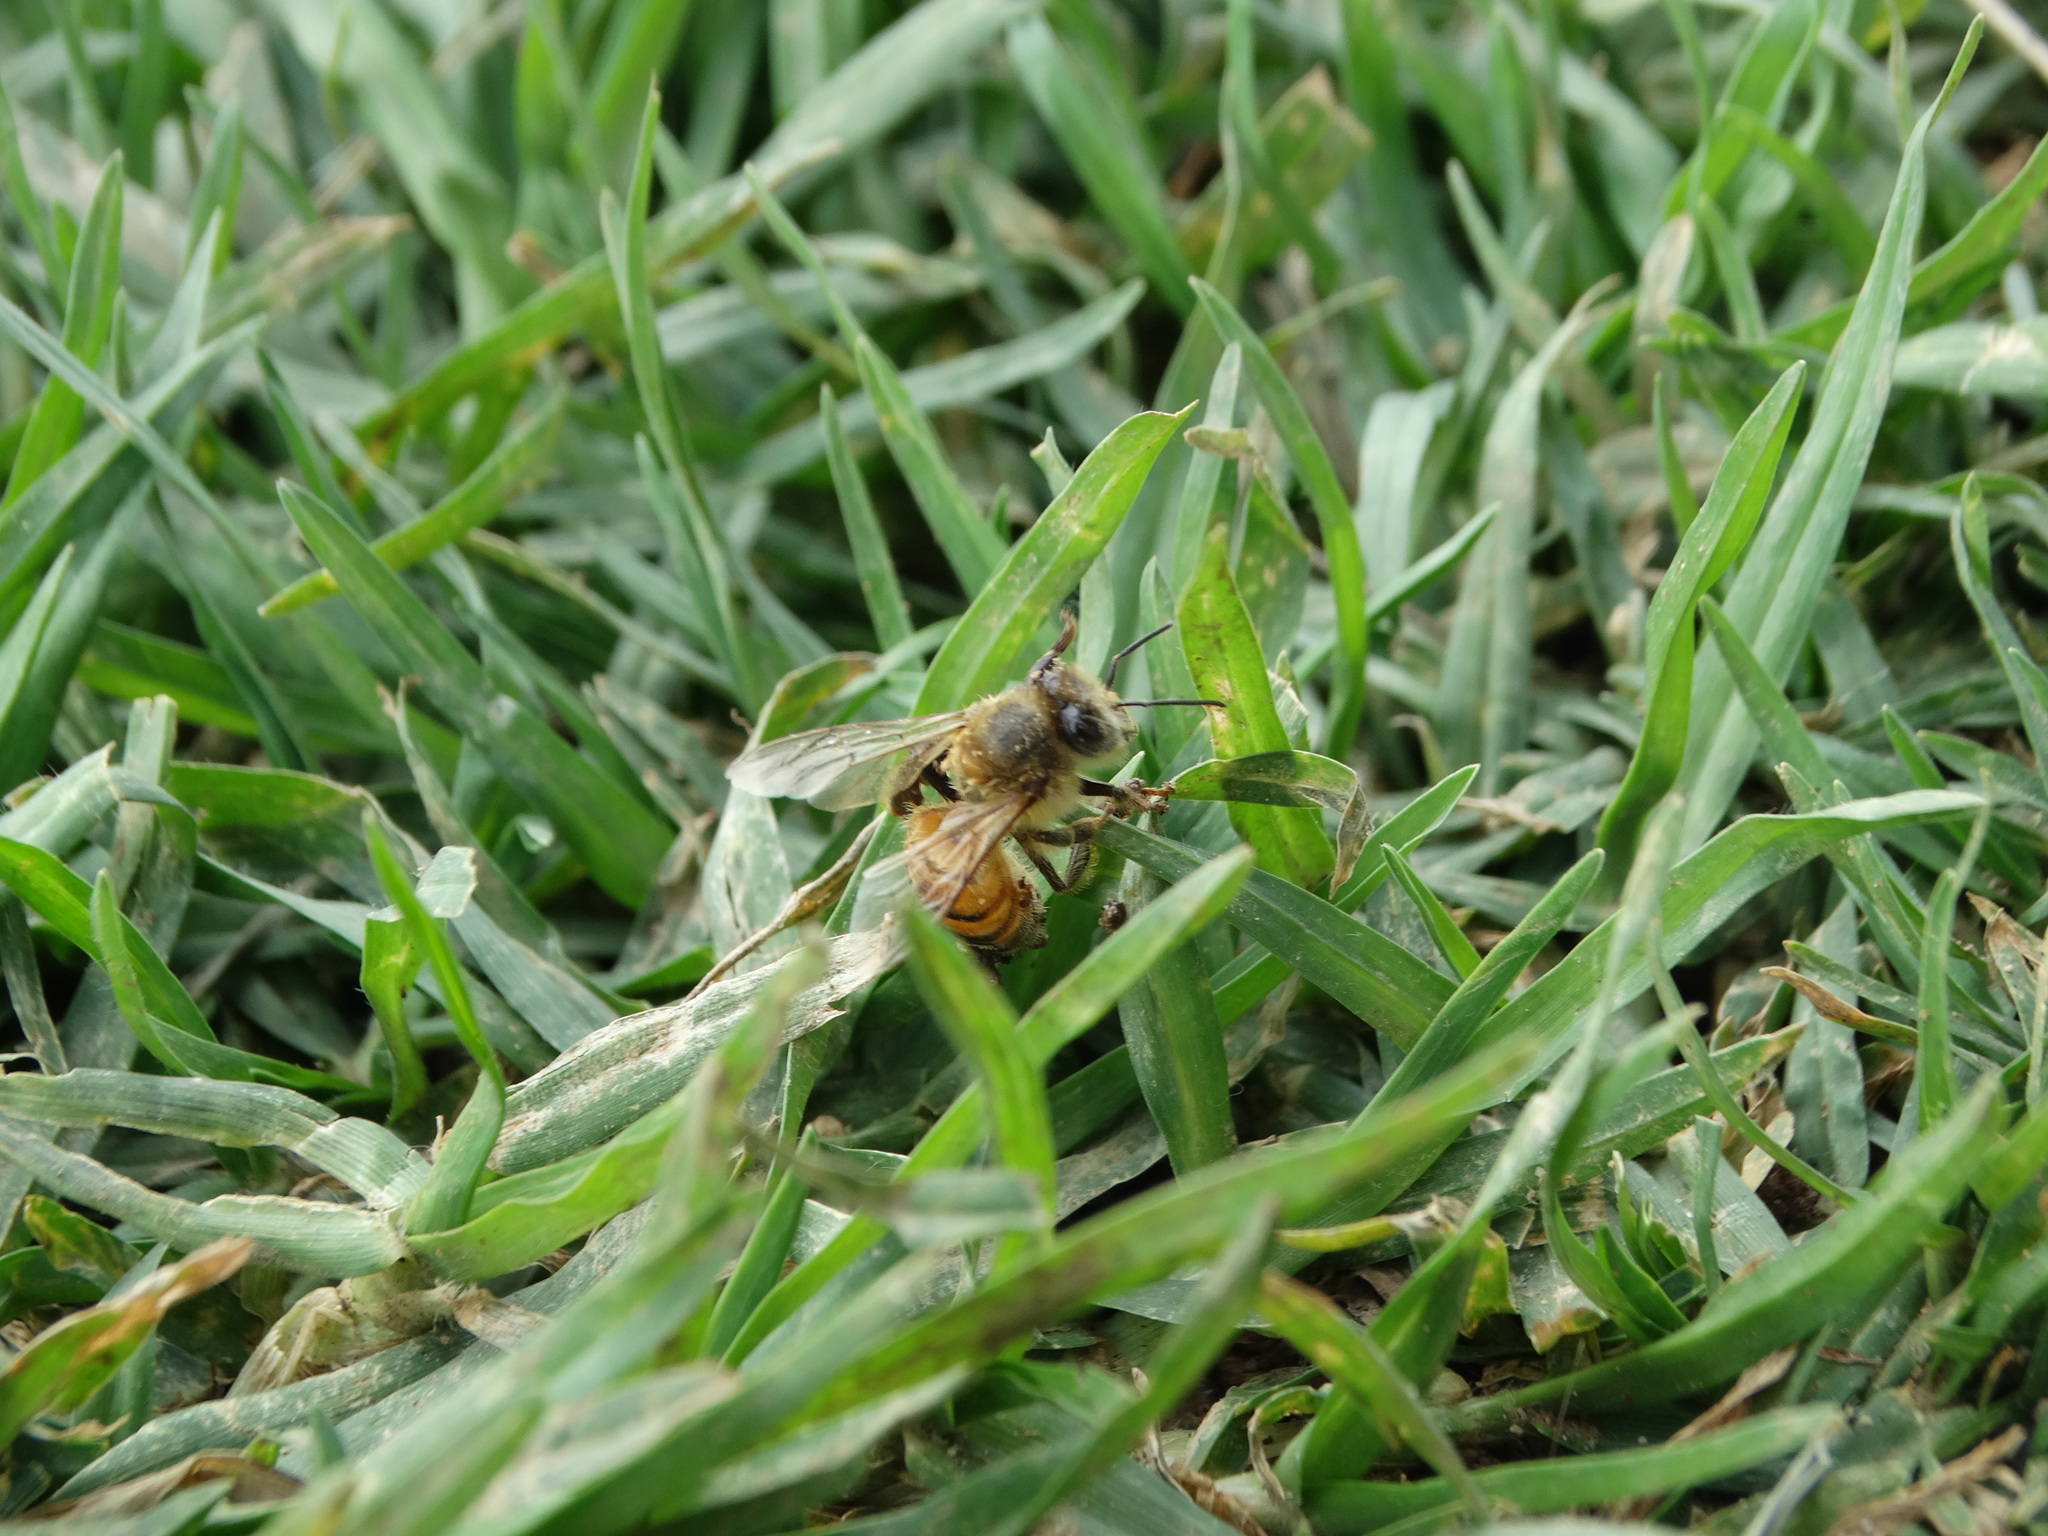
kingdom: Animalia
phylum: Arthropoda
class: Insecta
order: Hymenoptera
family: Apidae
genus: Apis
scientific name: Apis mellifera
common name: Honey bee
